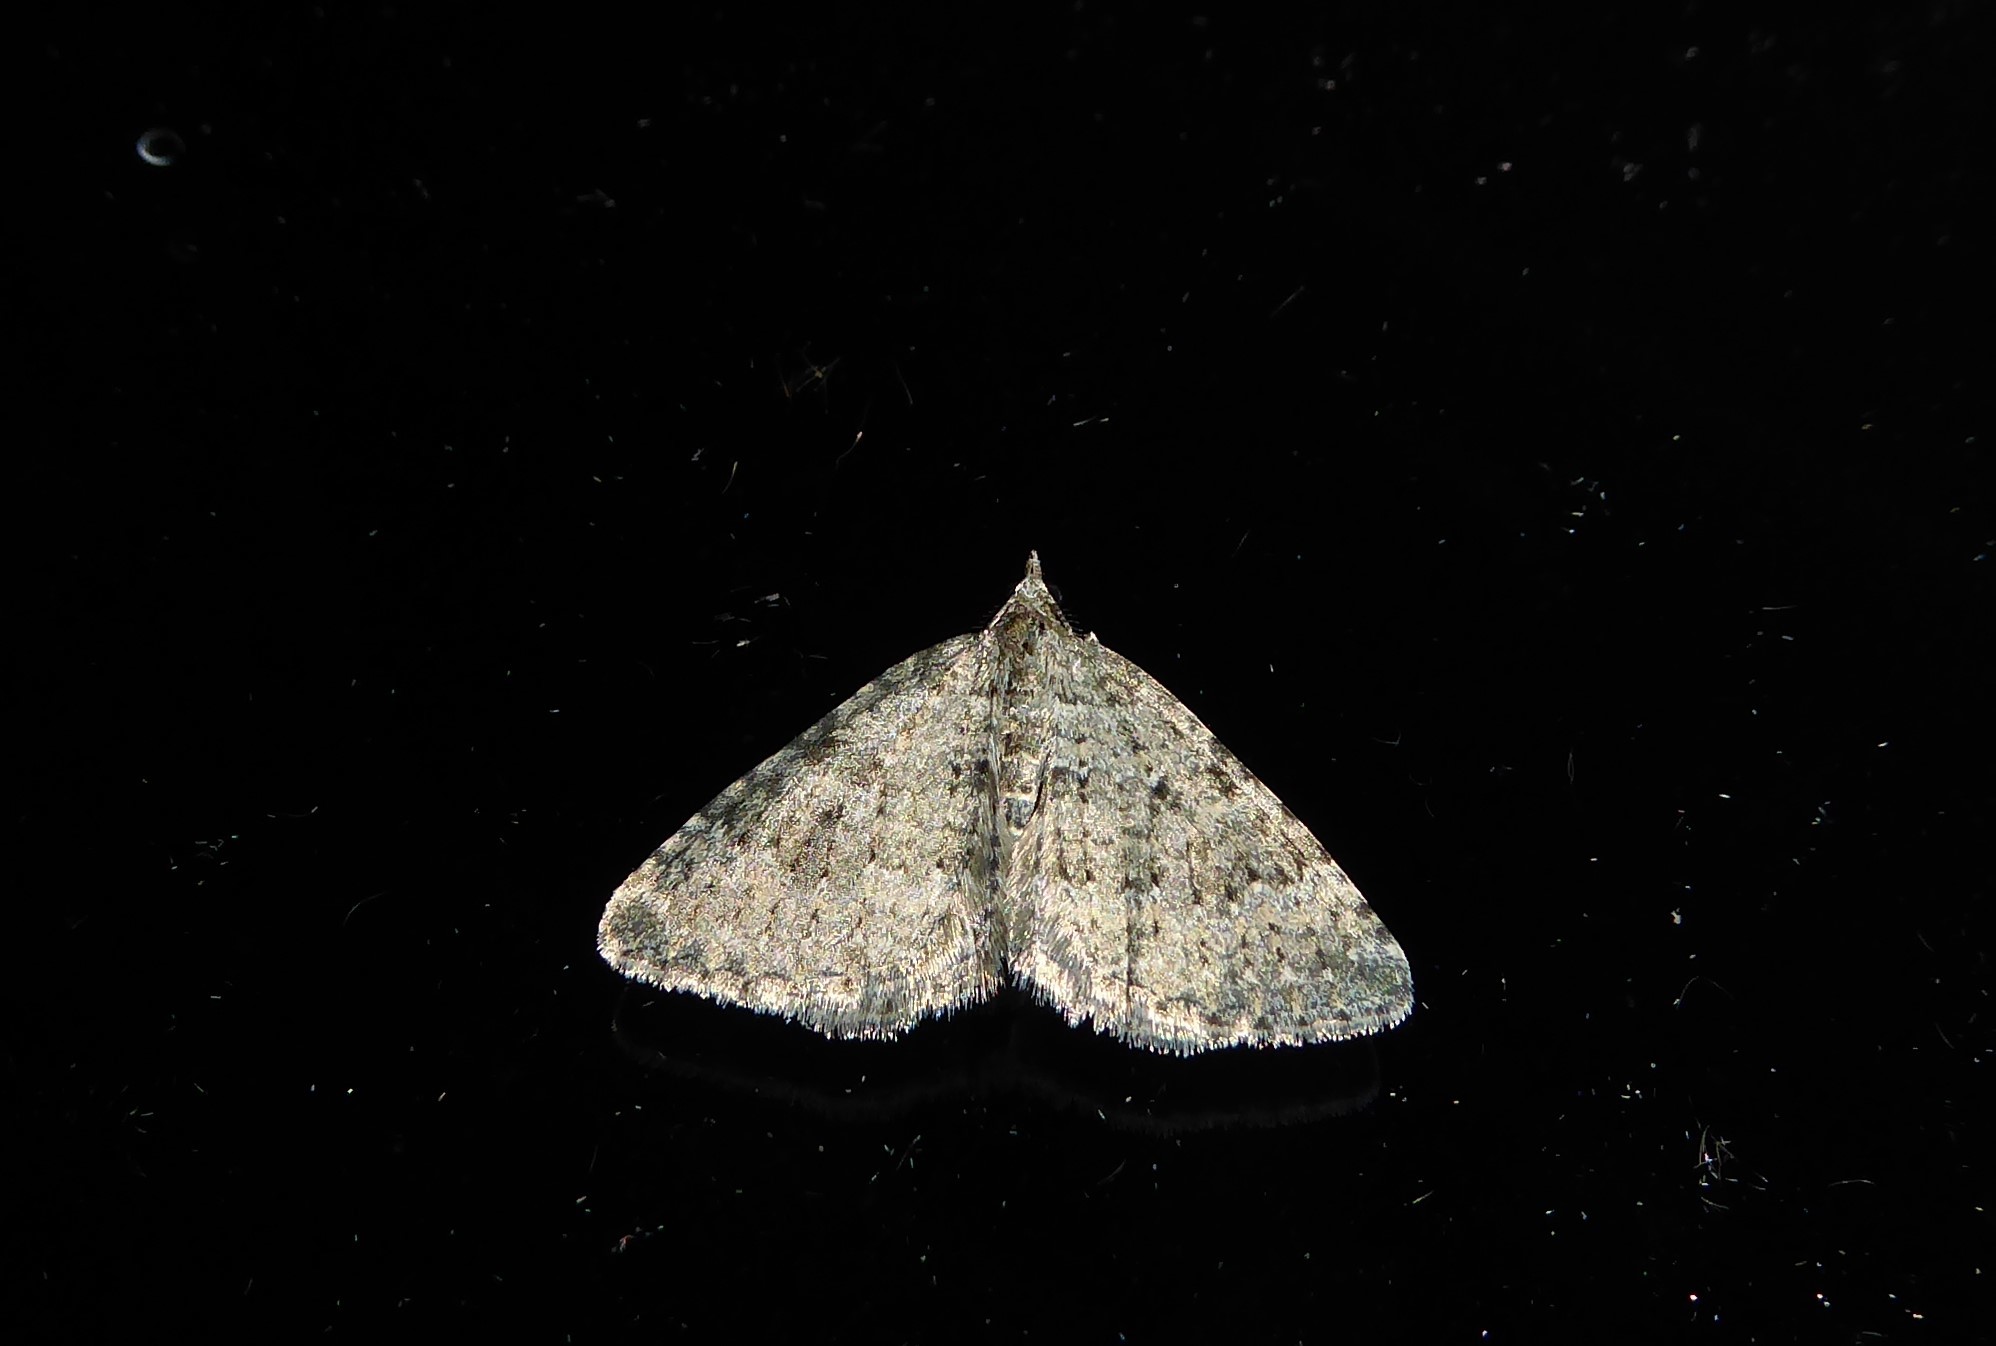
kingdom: Animalia
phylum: Arthropoda
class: Insecta
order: Lepidoptera
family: Geometridae
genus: Helastia
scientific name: Helastia corcularia
